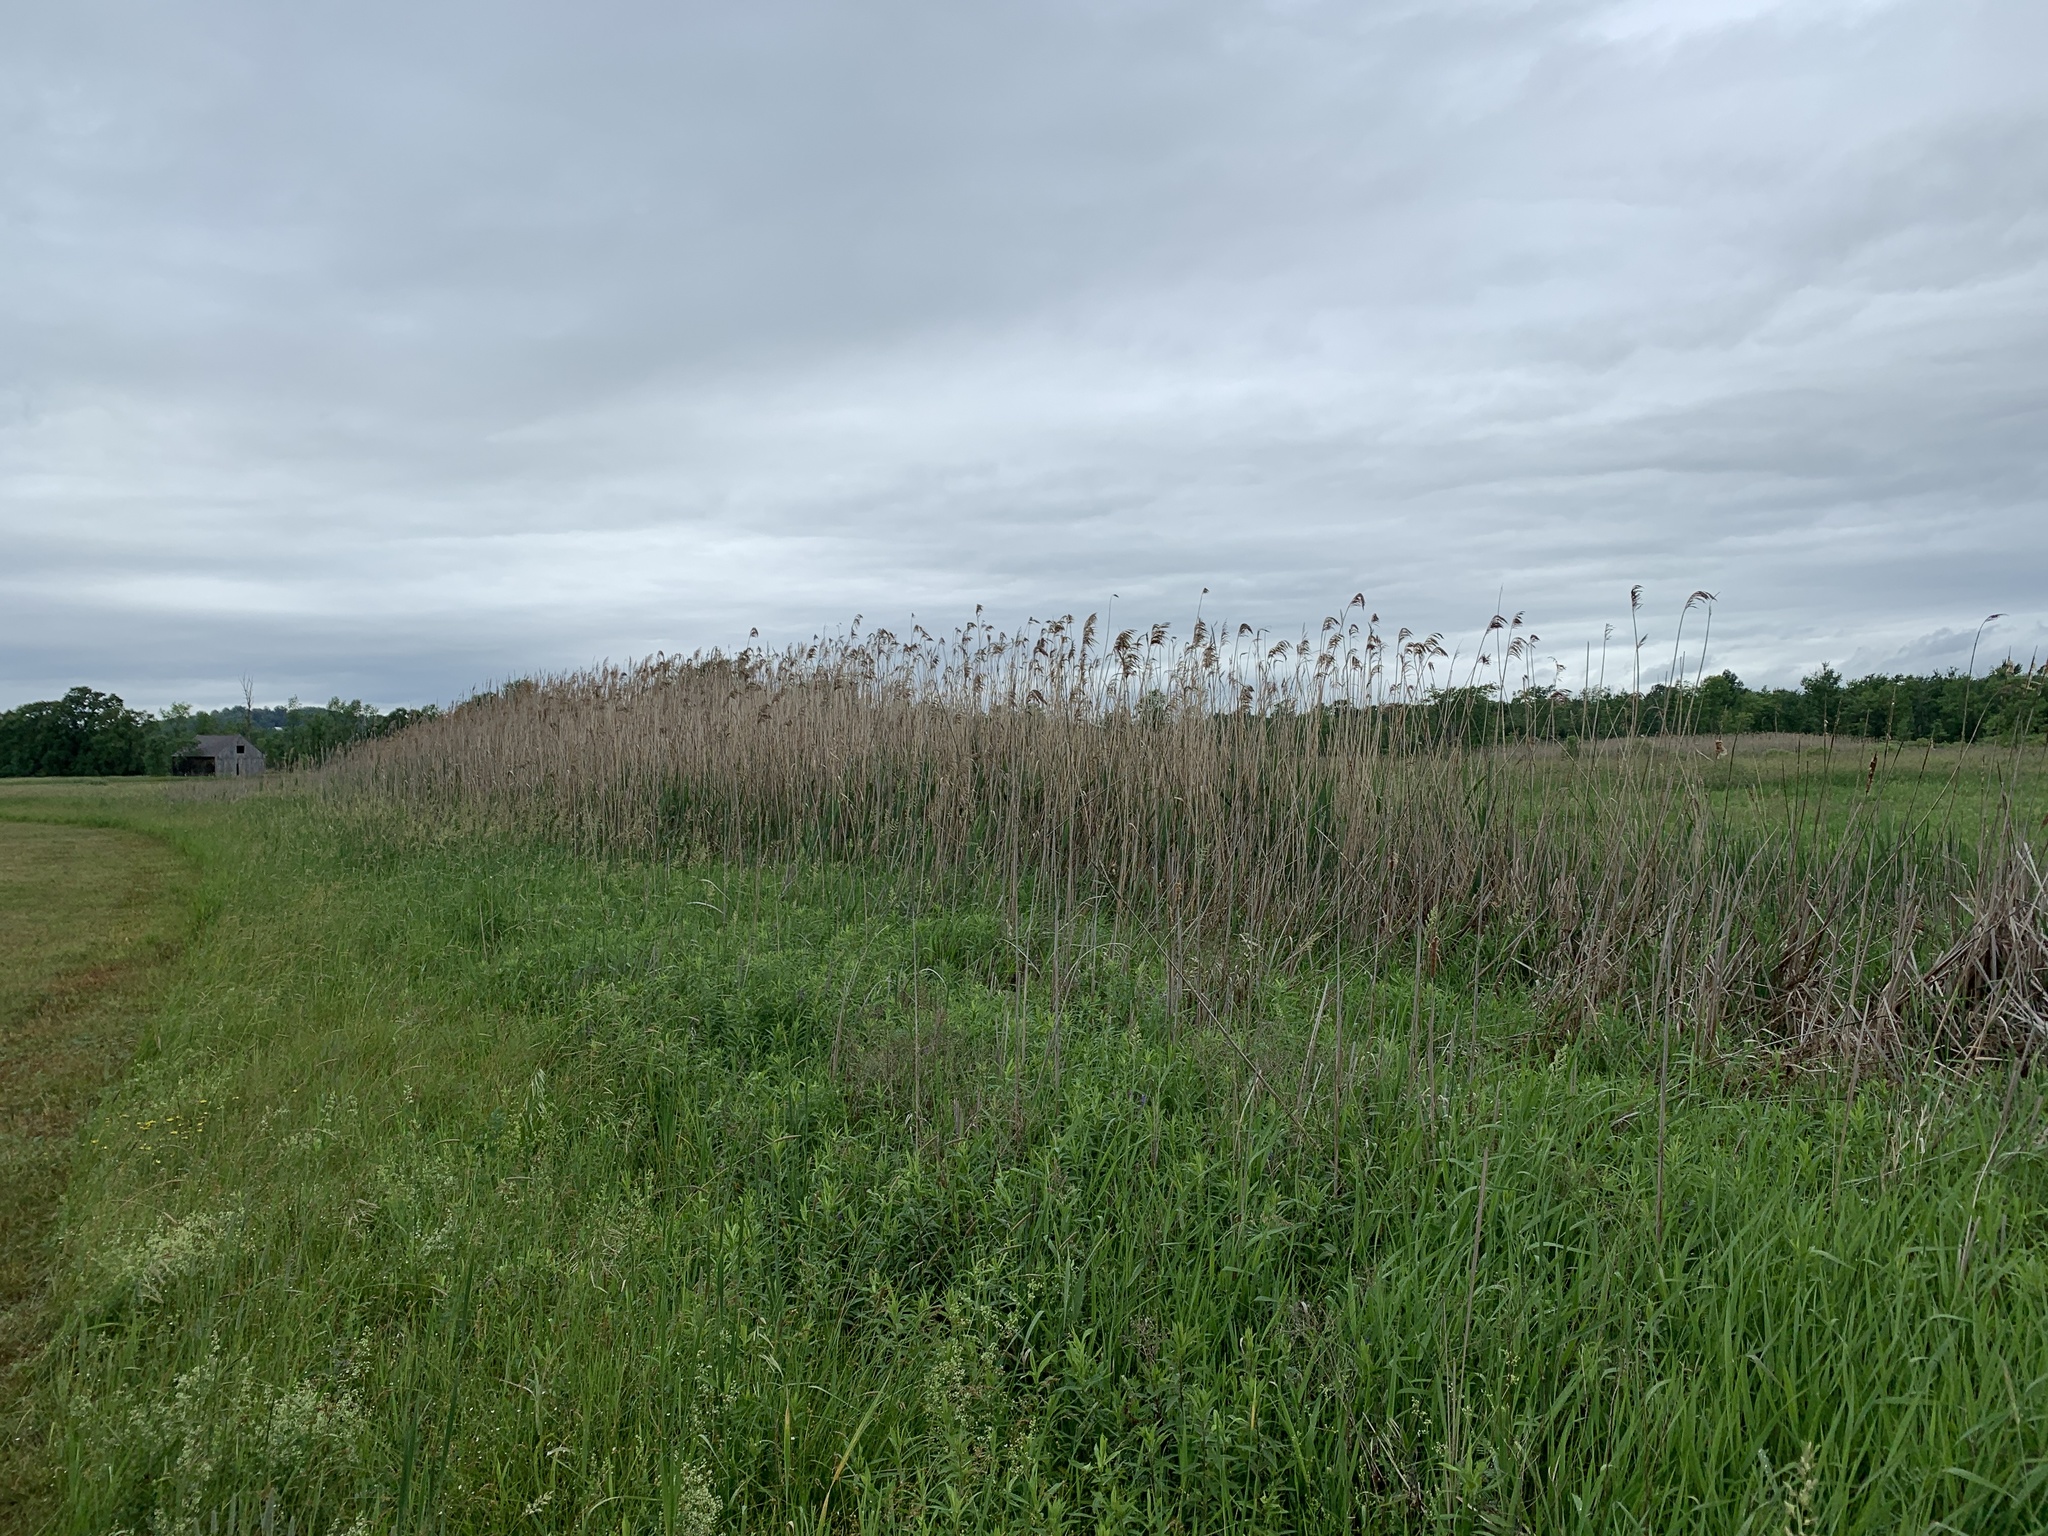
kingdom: Plantae
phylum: Tracheophyta
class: Liliopsida
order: Poales
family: Poaceae
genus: Phragmites
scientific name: Phragmites australis
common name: Common reed
